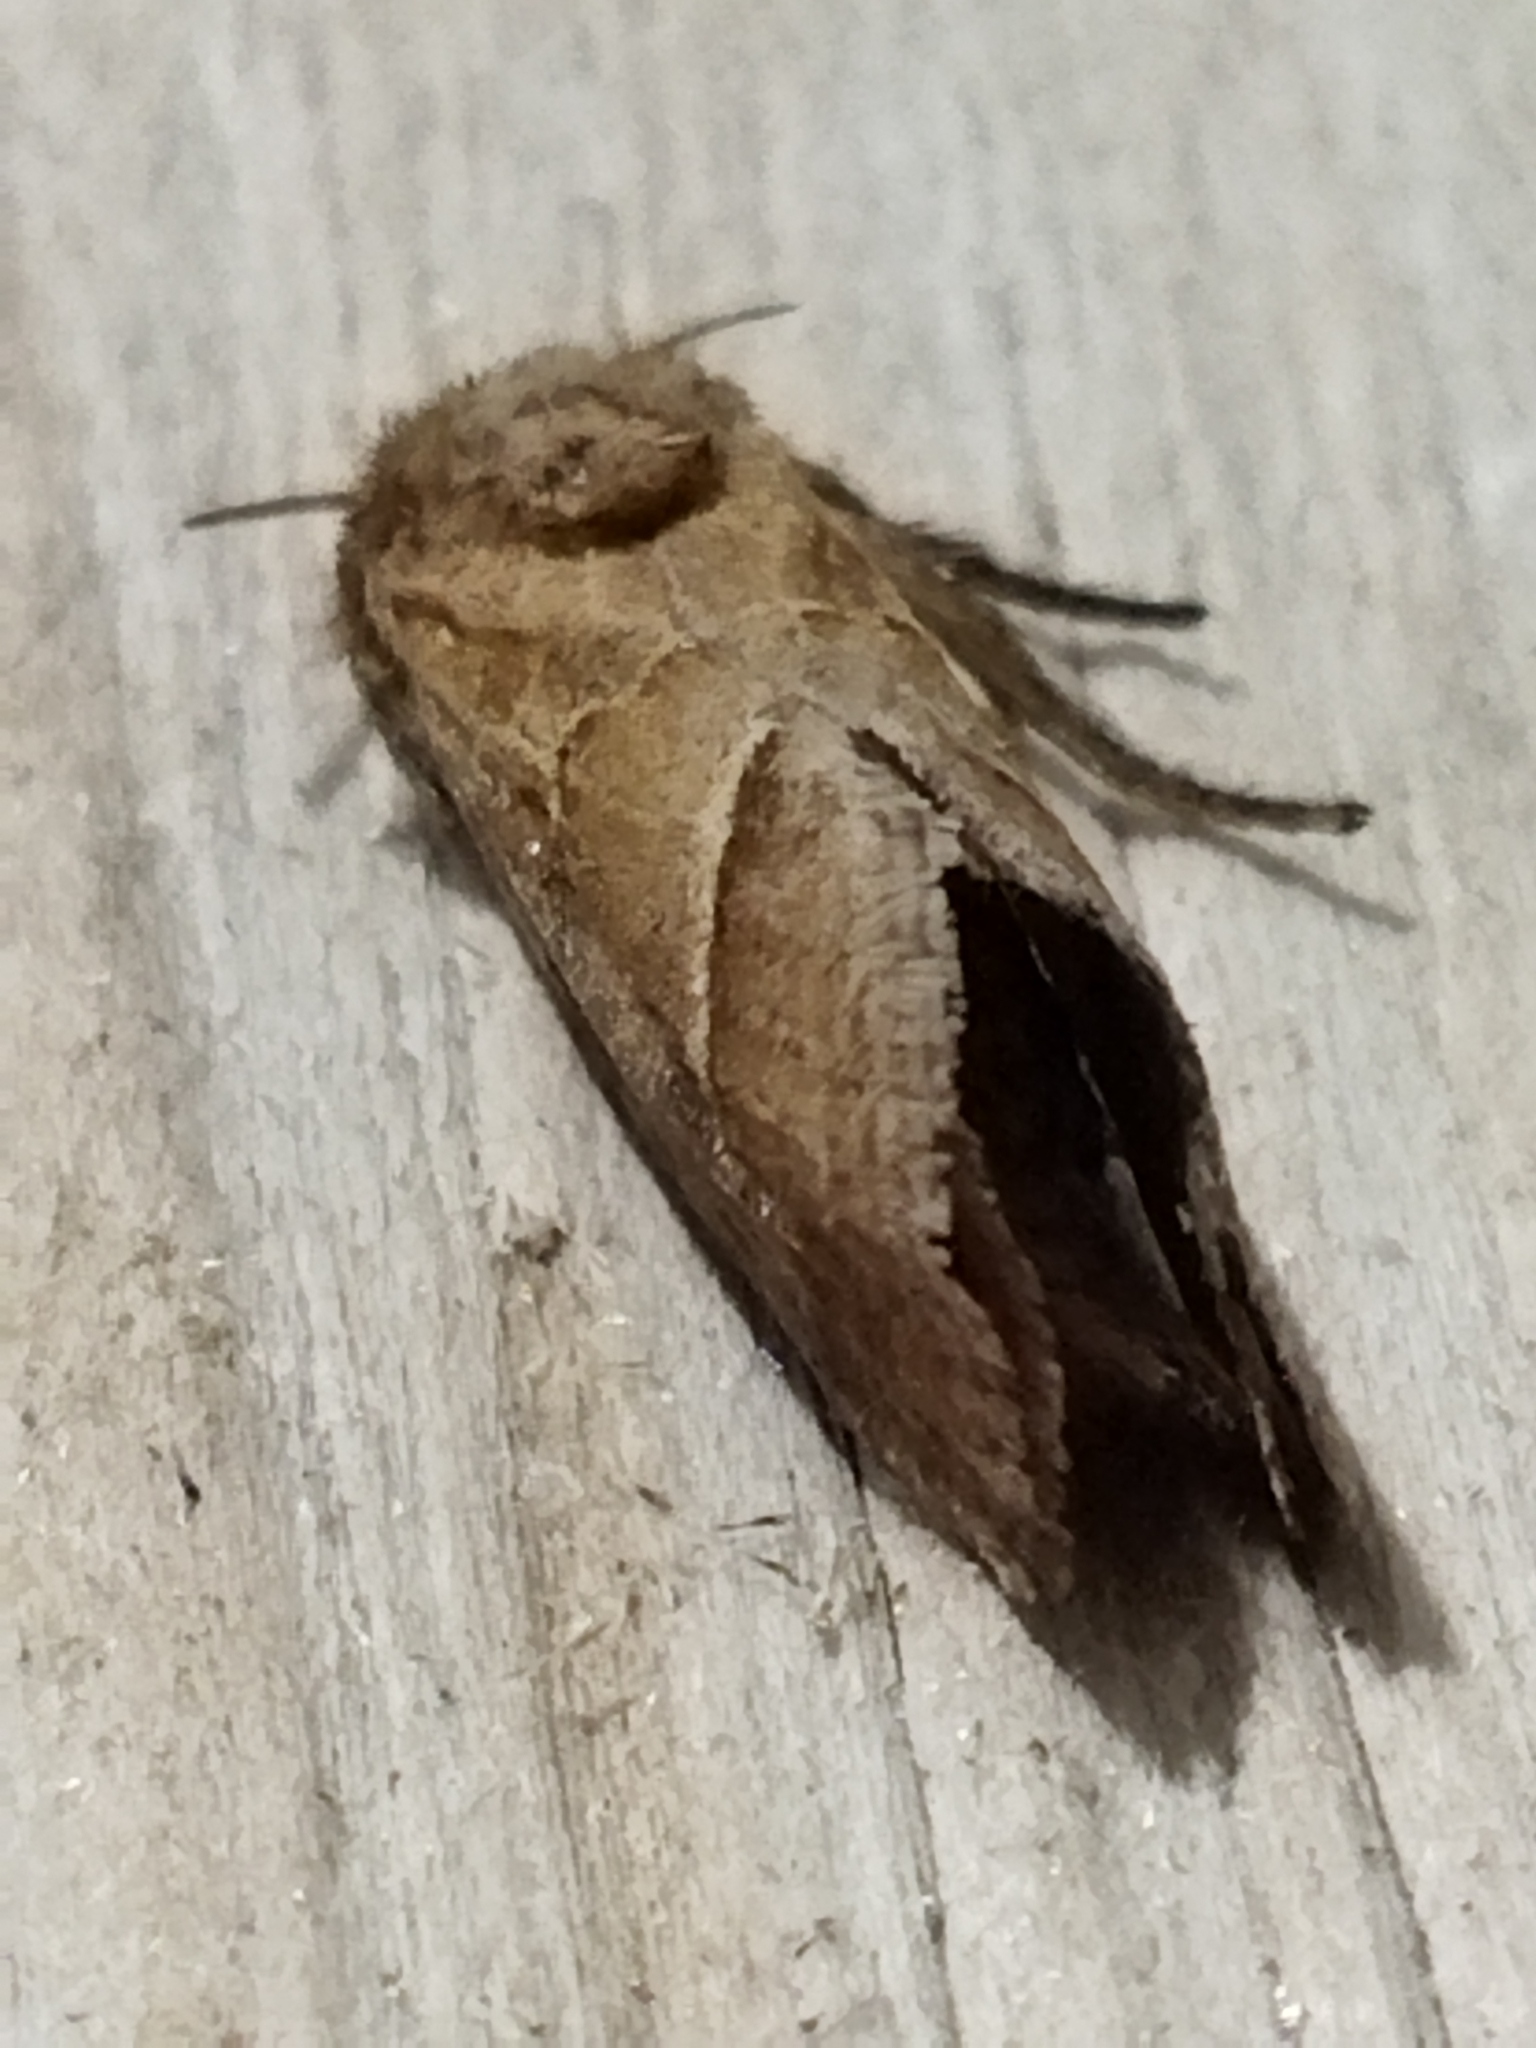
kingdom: Animalia
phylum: Arthropoda
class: Insecta
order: Lepidoptera
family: Hepialidae
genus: Triodia
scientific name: Triodia amasinus
